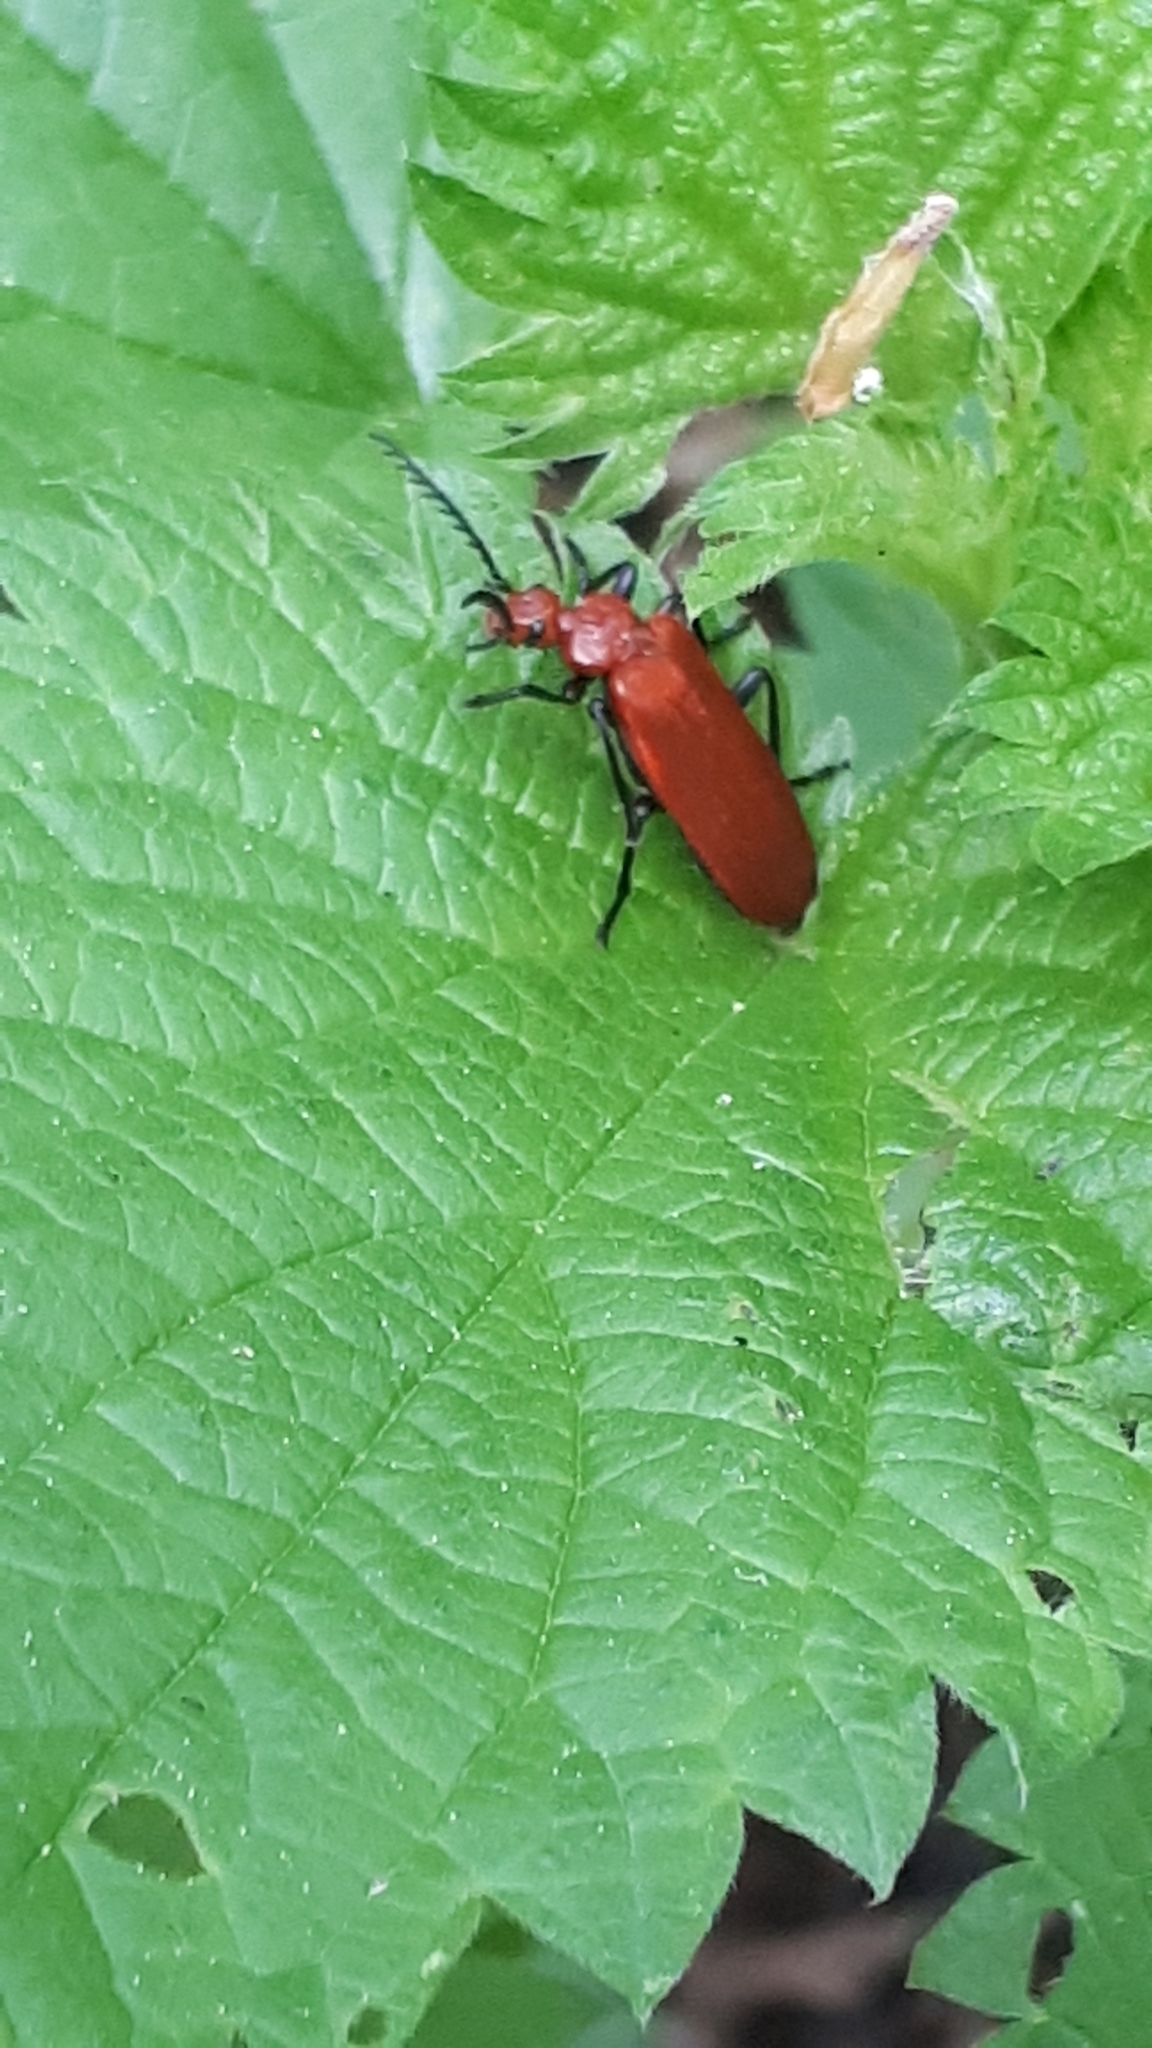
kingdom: Animalia
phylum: Arthropoda
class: Insecta
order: Coleoptera
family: Pyrochroidae
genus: Pyrochroa
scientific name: Pyrochroa serraticornis
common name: Red-headed cardinal beetle
